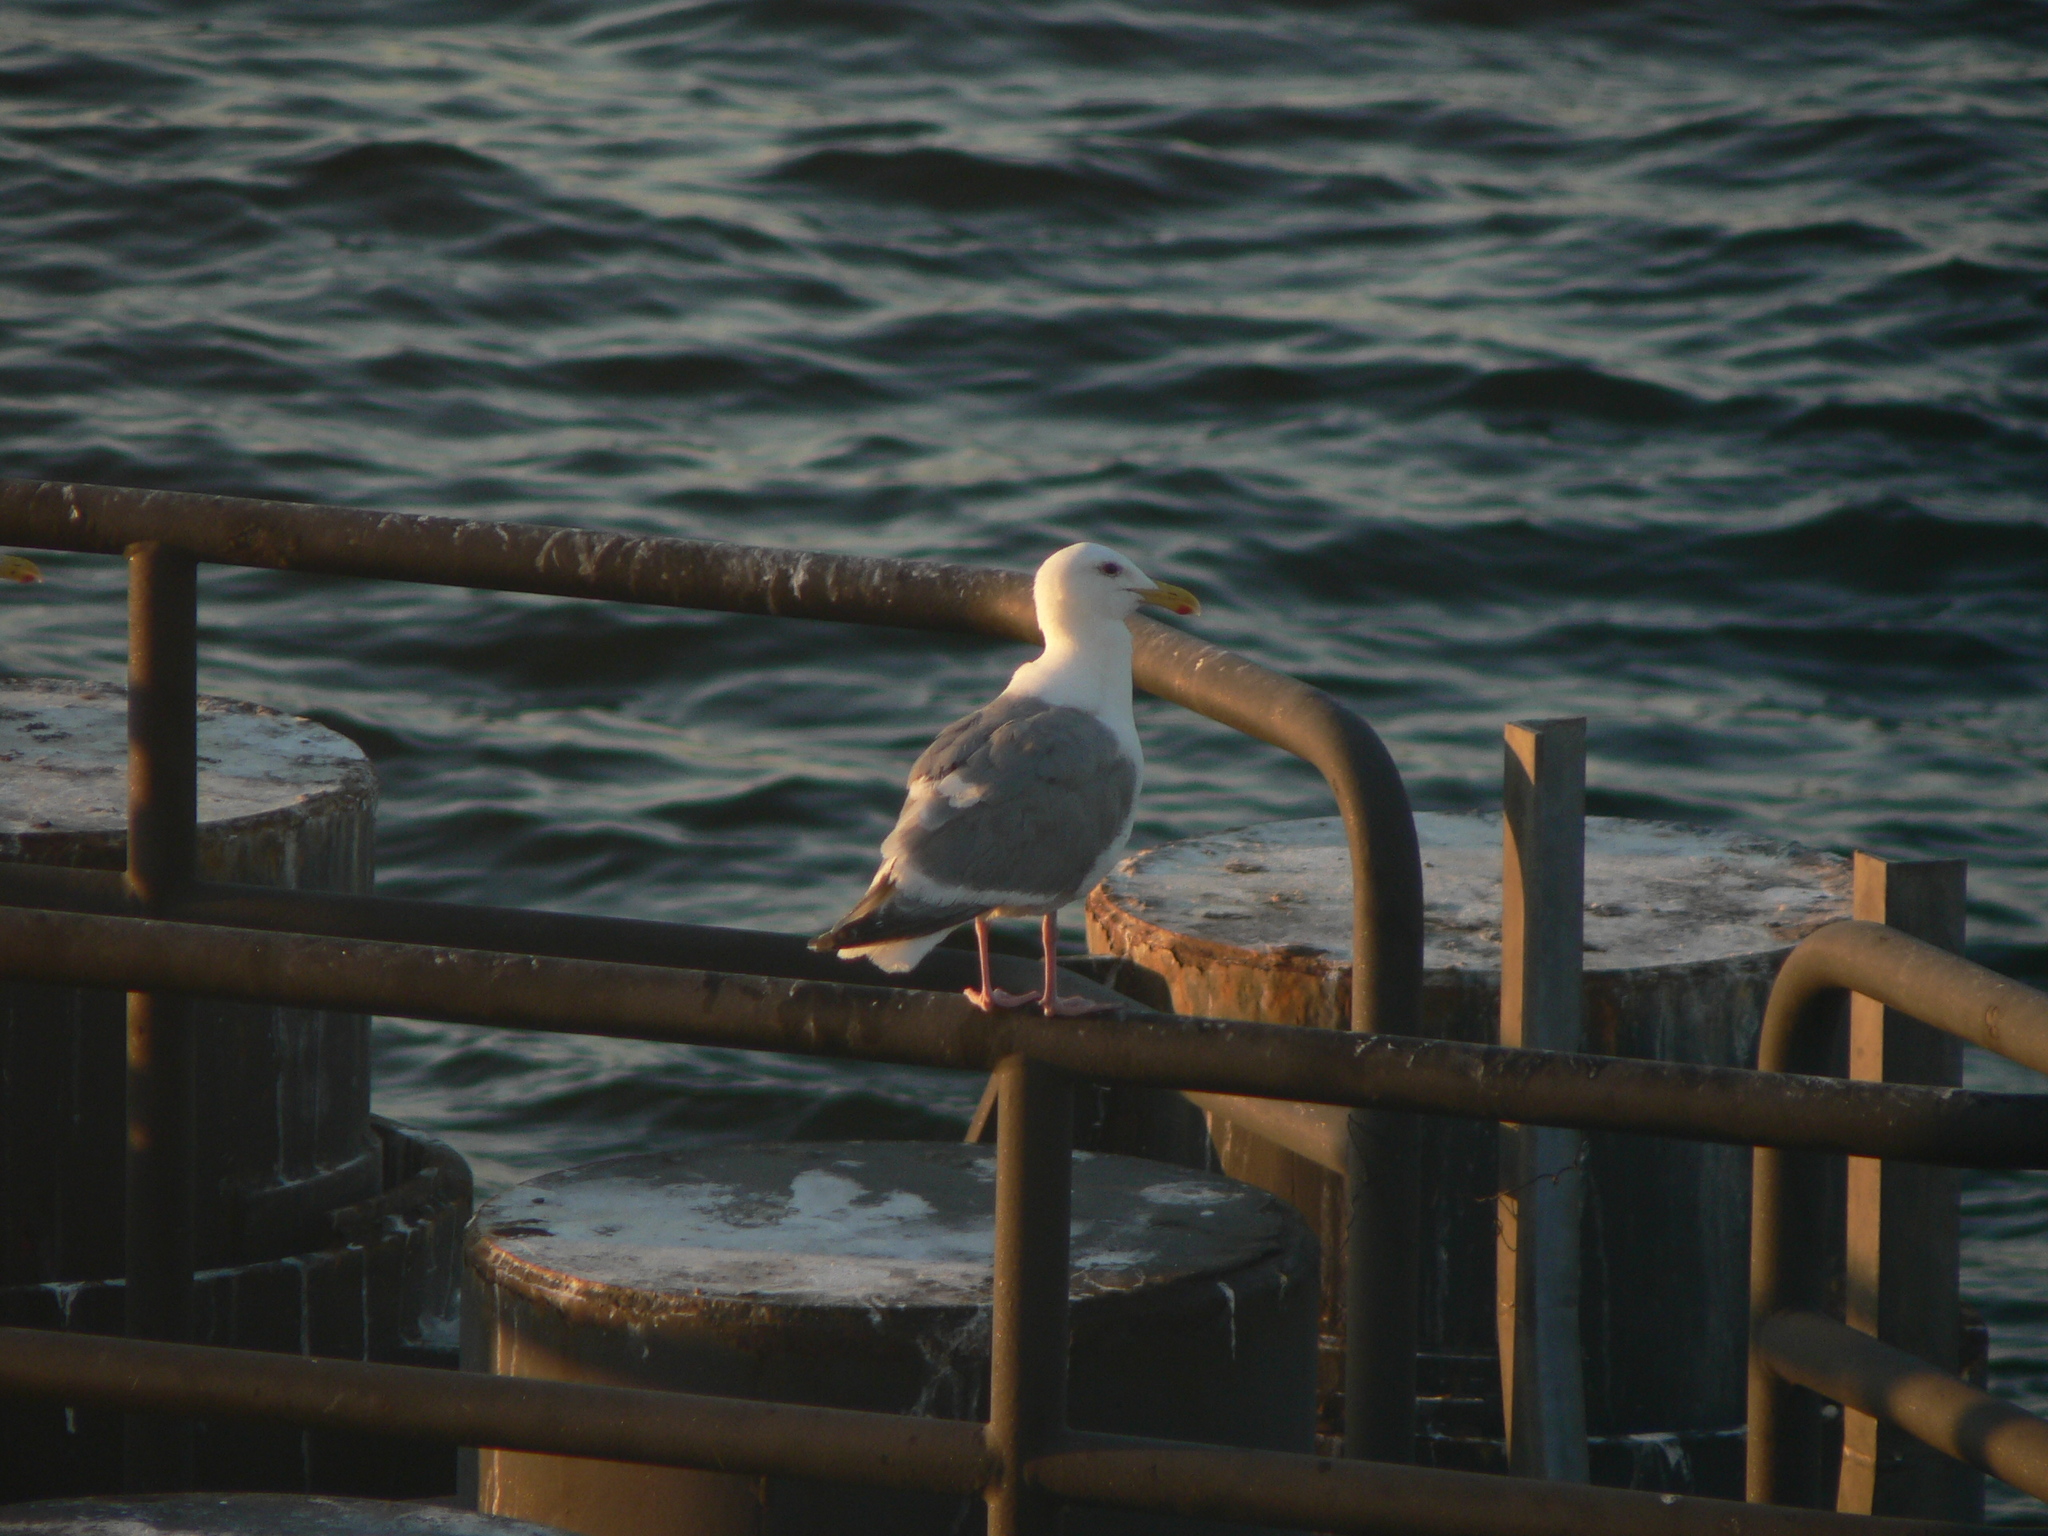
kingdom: Animalia
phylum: Chordata
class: Aves
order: Charadriiformes
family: Laridae
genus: Larus
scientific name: Larus
